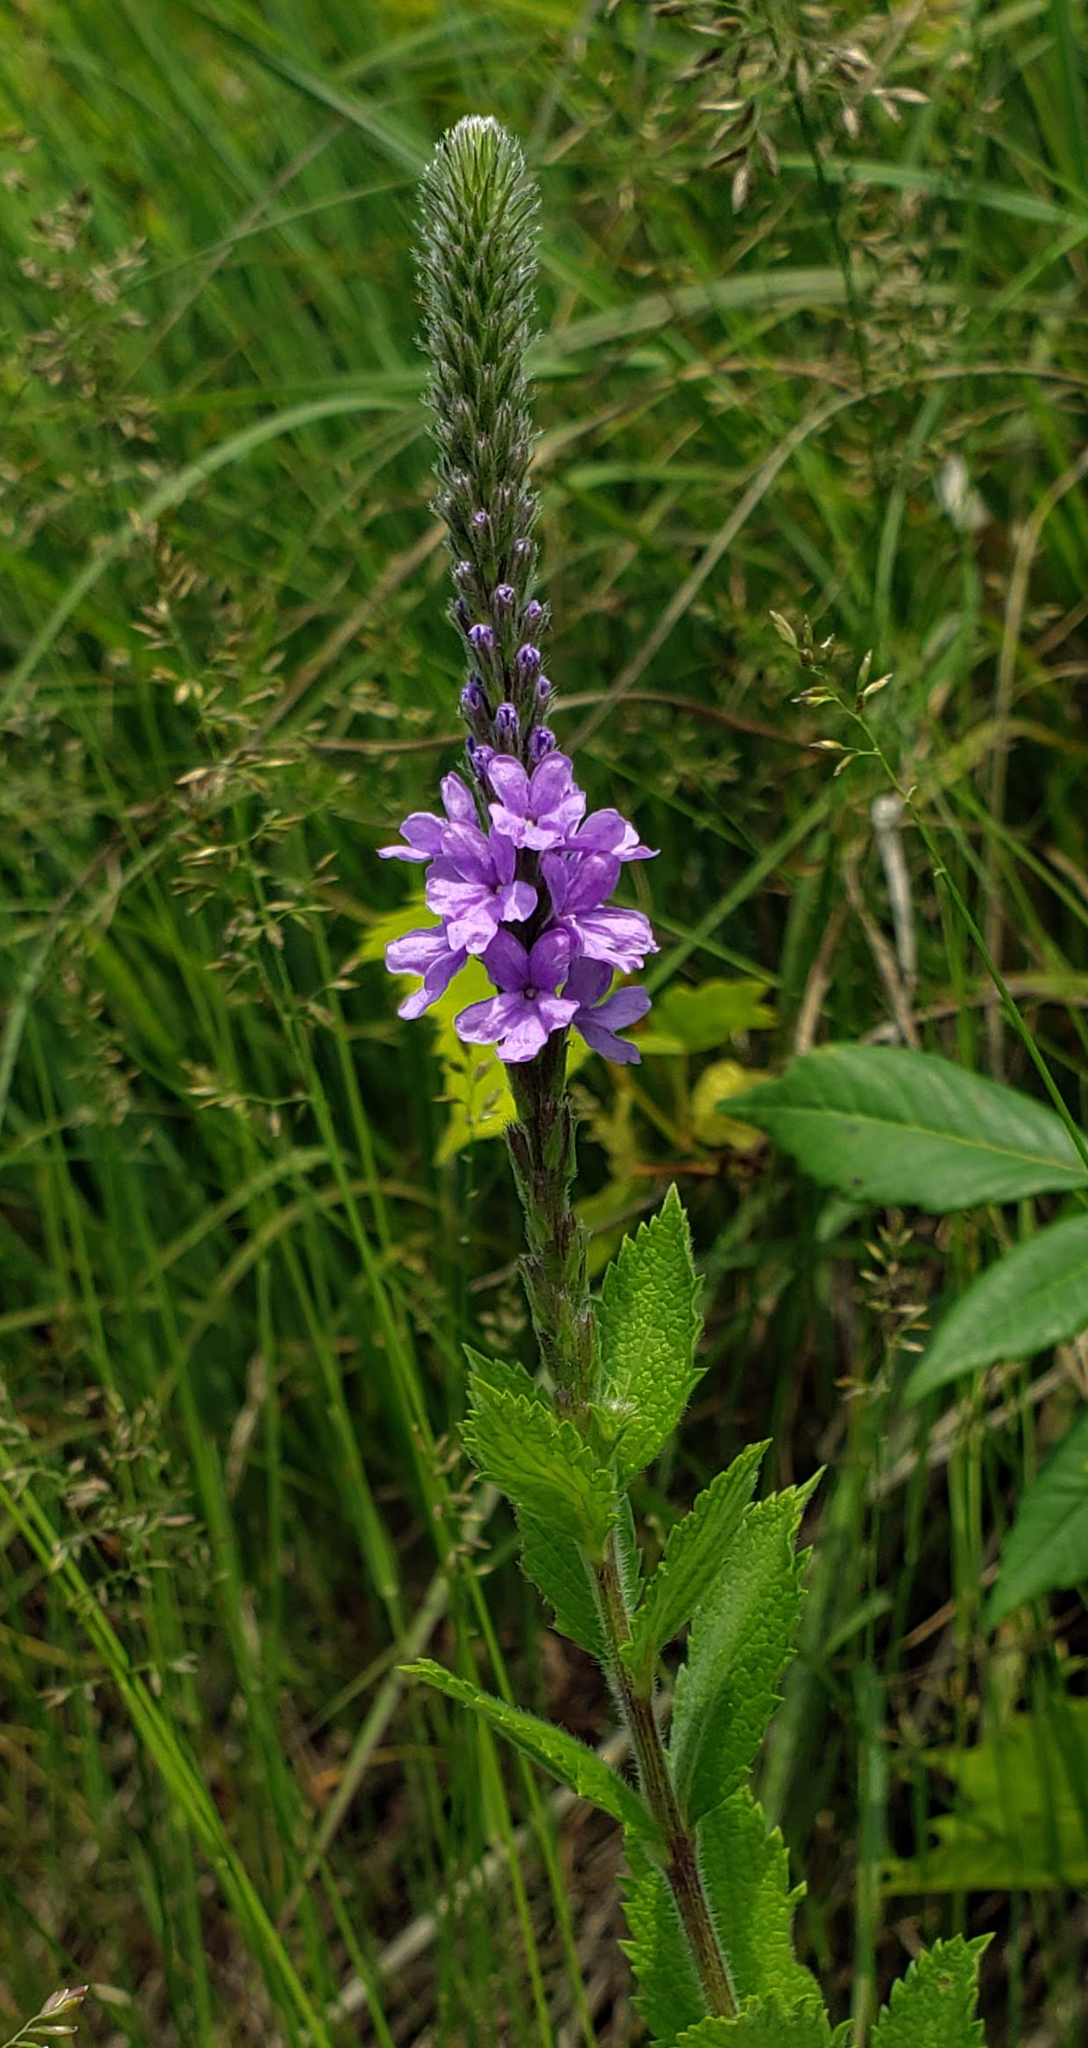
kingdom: Plantae
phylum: Tracheophyta
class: Magnoliopsida
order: Lamiales
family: Verbenaceae
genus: Verbena
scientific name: Verbena stricta
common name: Hoary vervain
